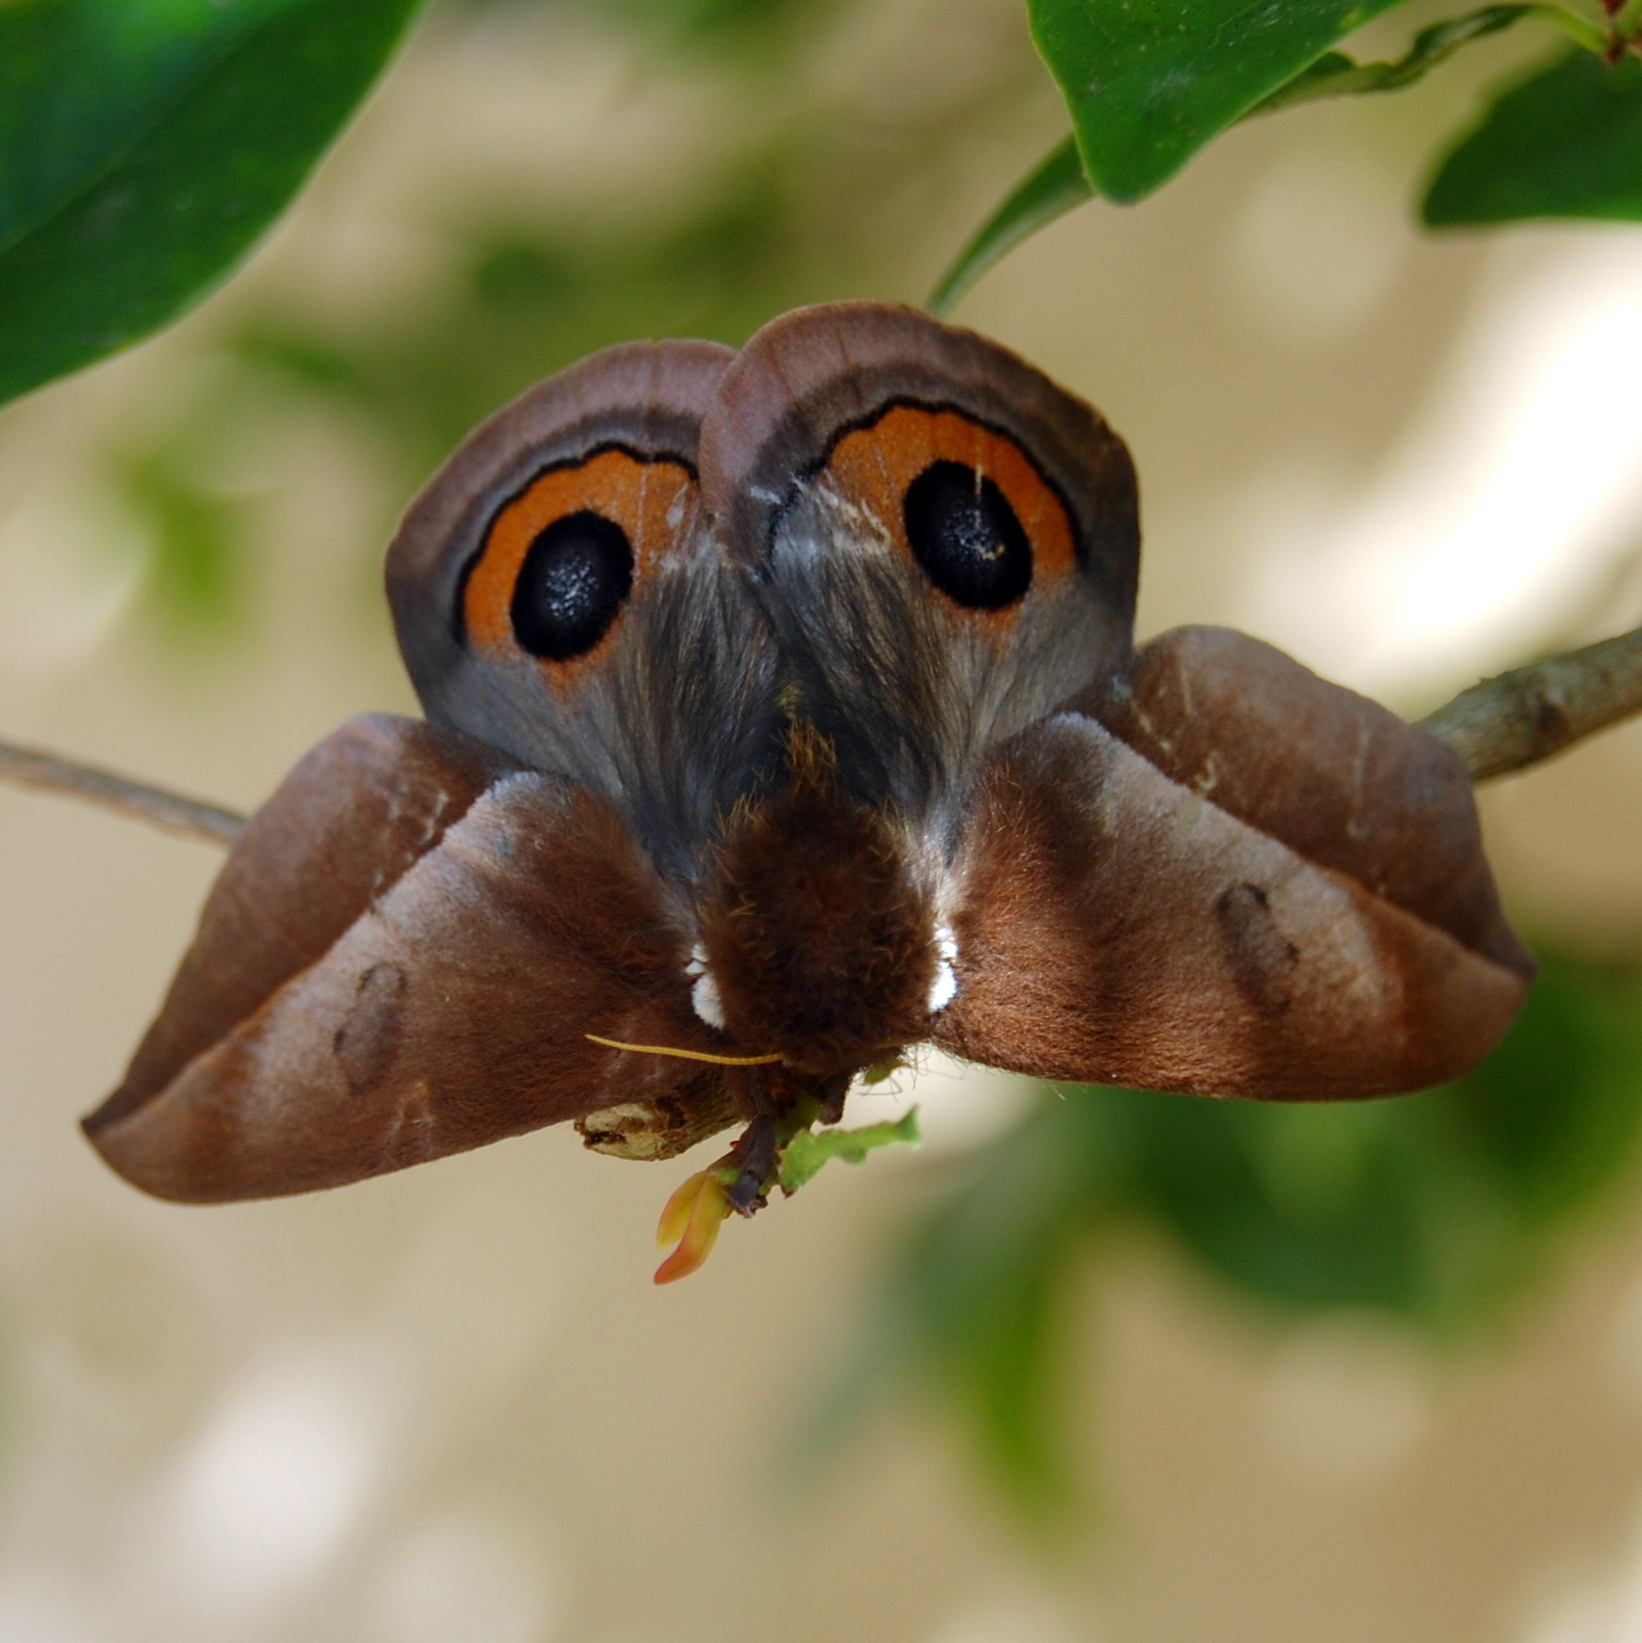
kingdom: Animalia
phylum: Arthropoda
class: Insecta
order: Lepidoptera
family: Saturniidae
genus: Automeris
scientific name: Automeris naranja
